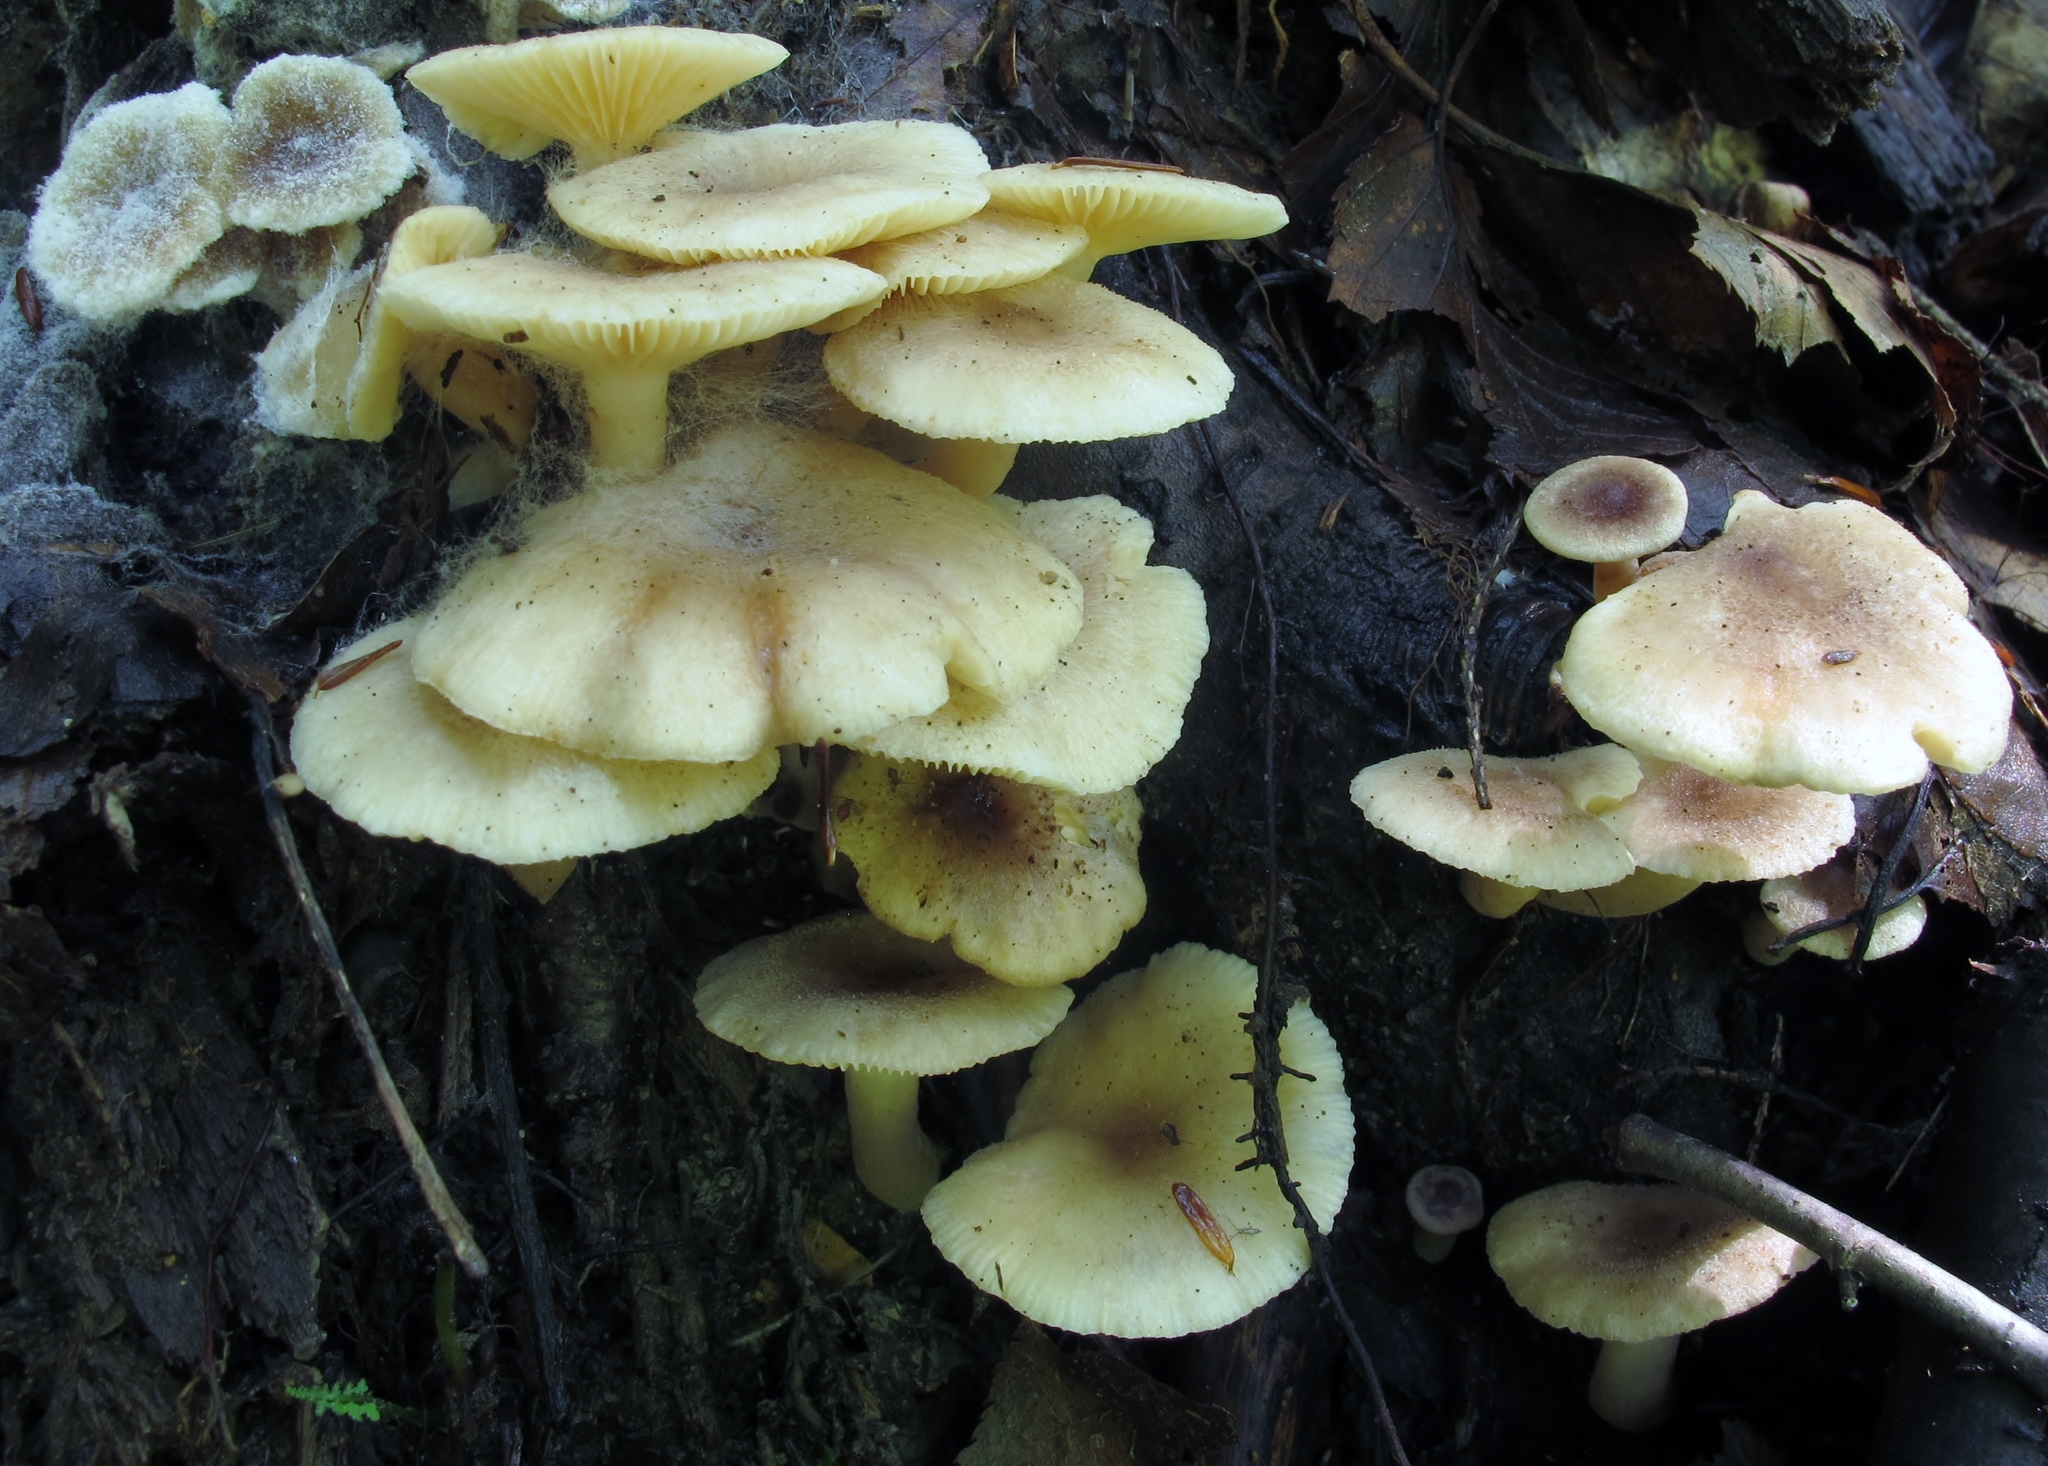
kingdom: Fungi
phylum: Basidiomycota
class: Agaricomycetes
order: Russulales
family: Russulaceae
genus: Lactarius
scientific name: Lactarius cinereus
